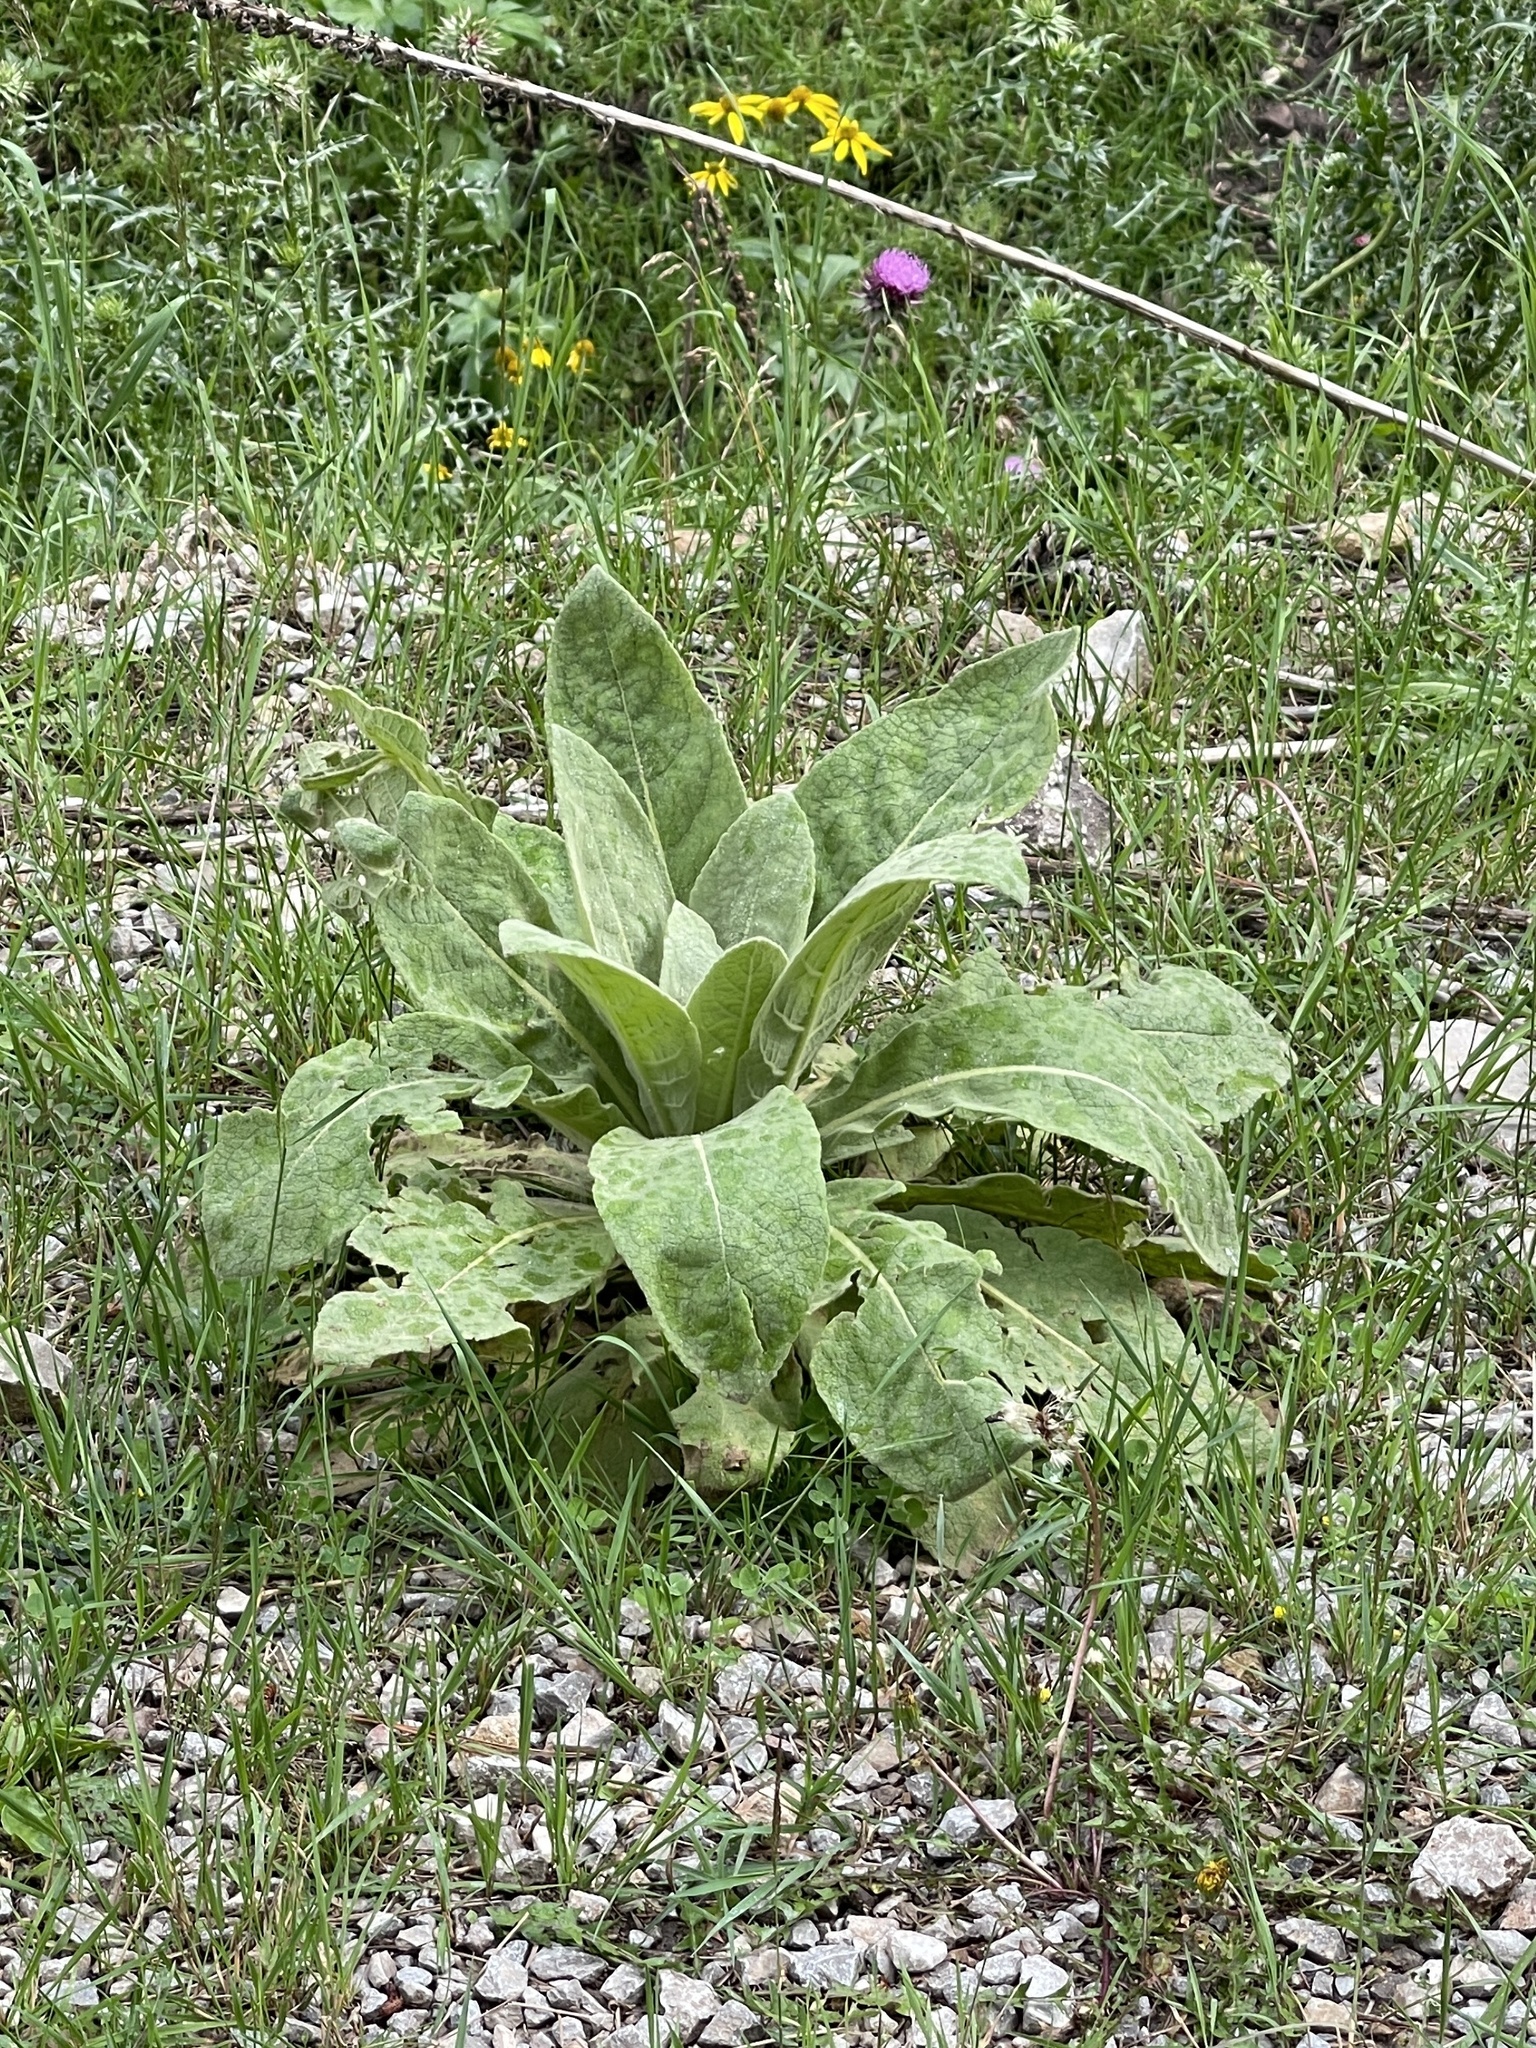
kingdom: Plantae
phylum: Tracheophyta
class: Magnoliopsida
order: Lamiales
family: Scrophulariaceae
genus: Verbascum
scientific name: Verbascum thapsus
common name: Common mullein
